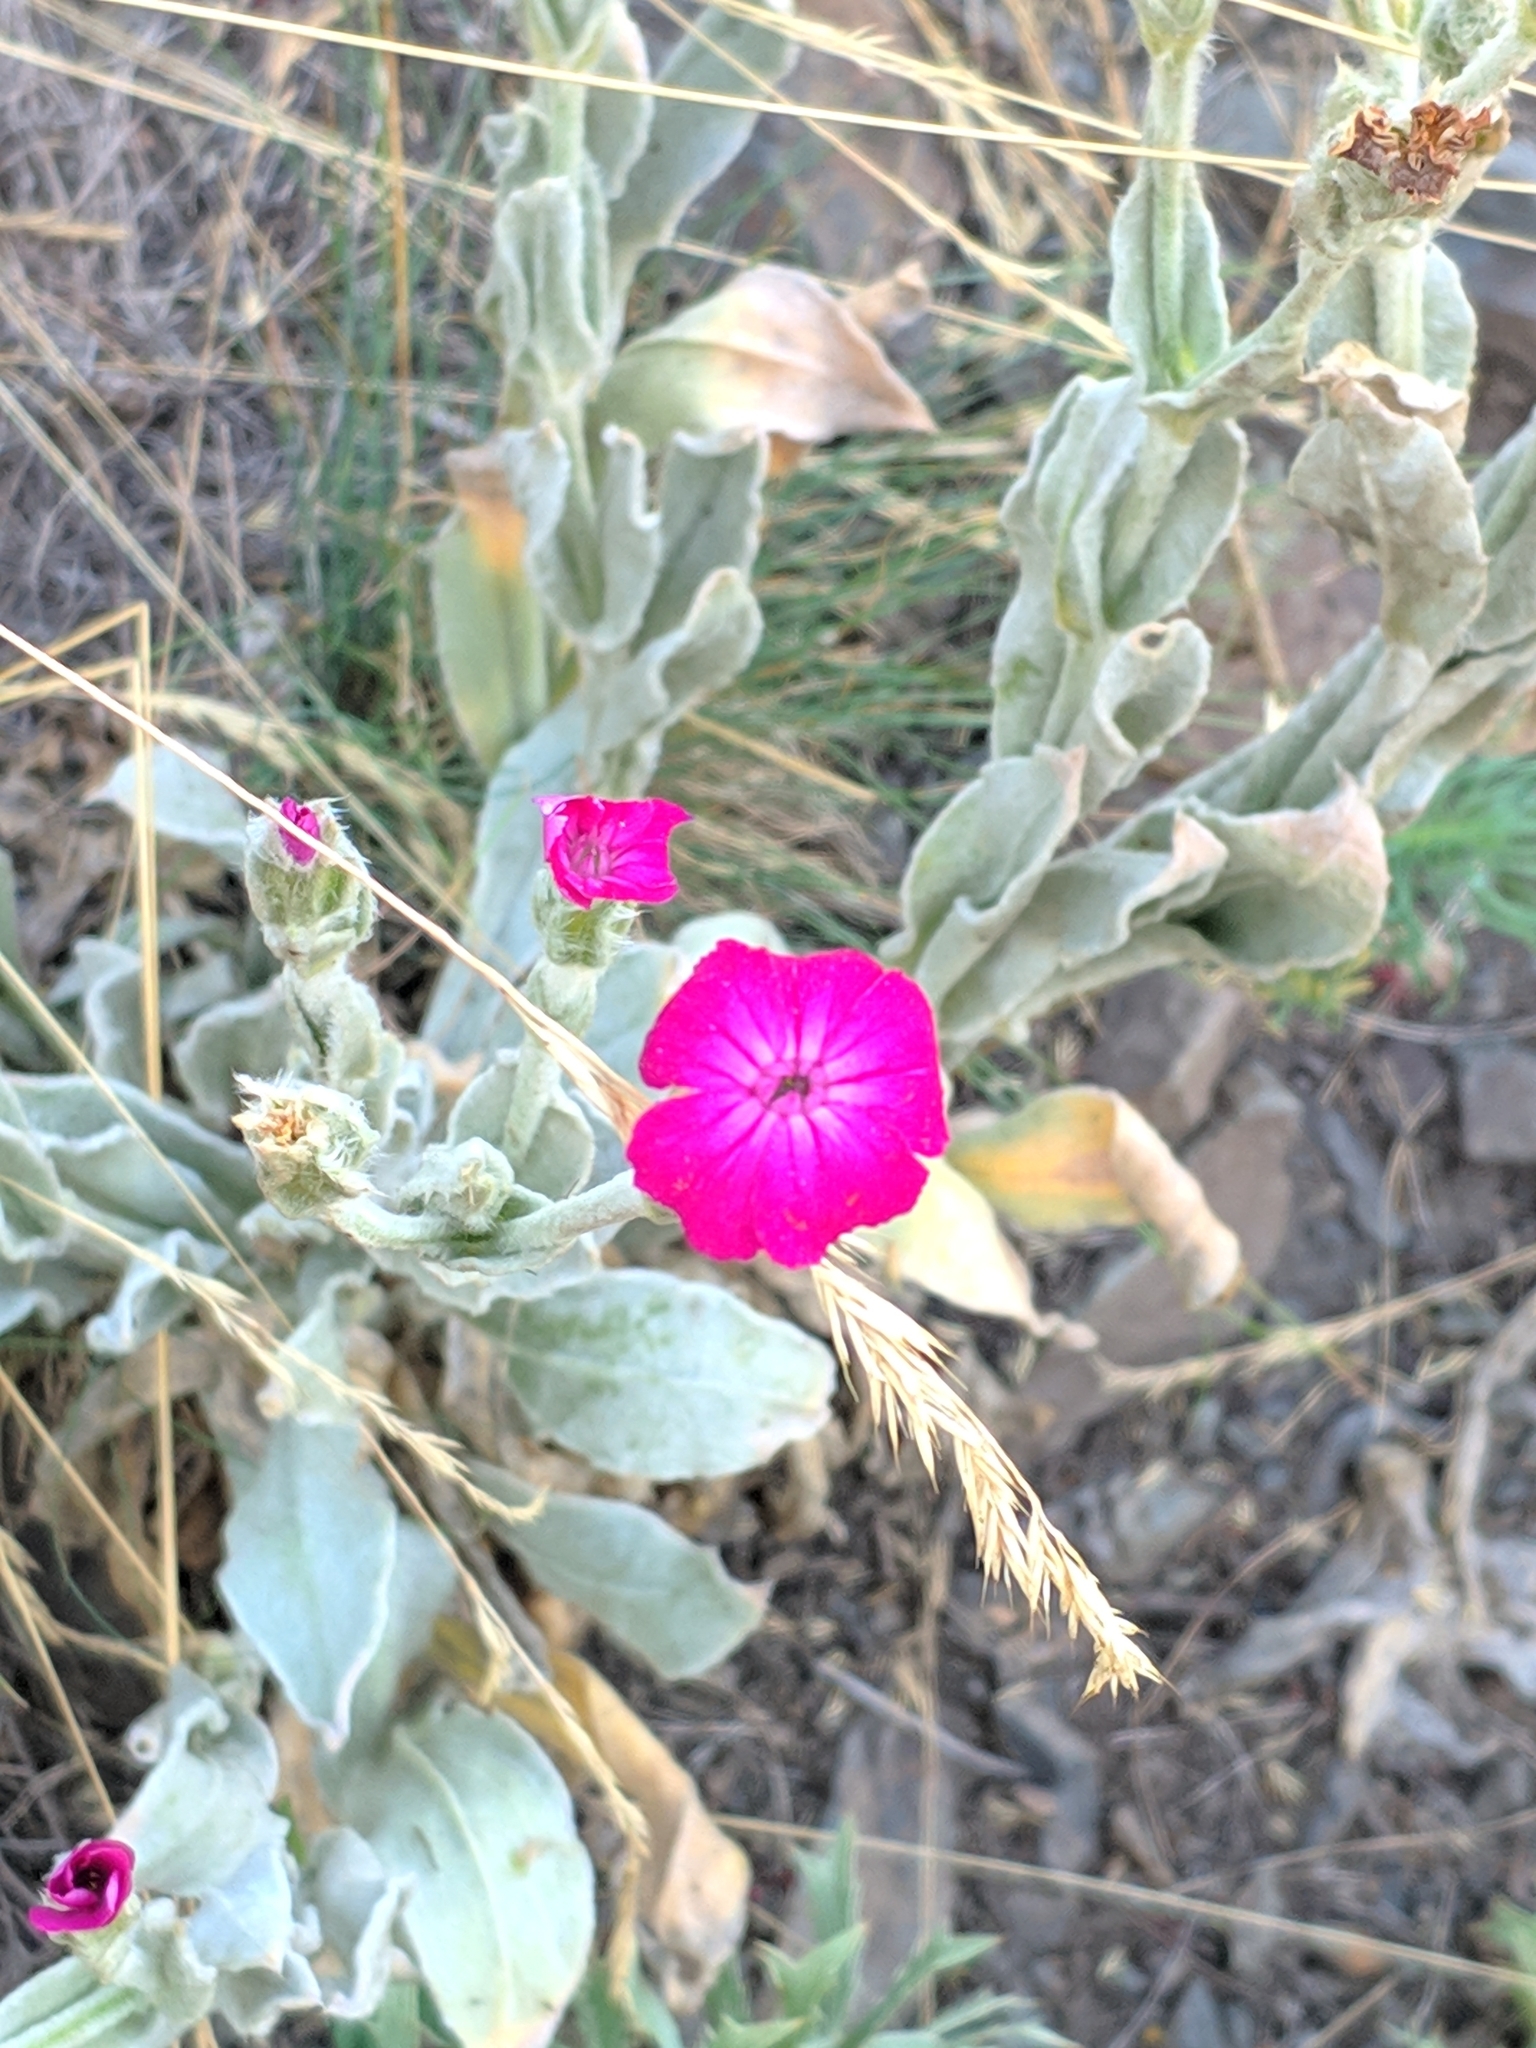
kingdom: Plantae
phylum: Tracheophyta
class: Magnoliopsida
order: Caryophyllales
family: Caryophyllaceae
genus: Silene
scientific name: Silene coronaria
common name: Rose campion
